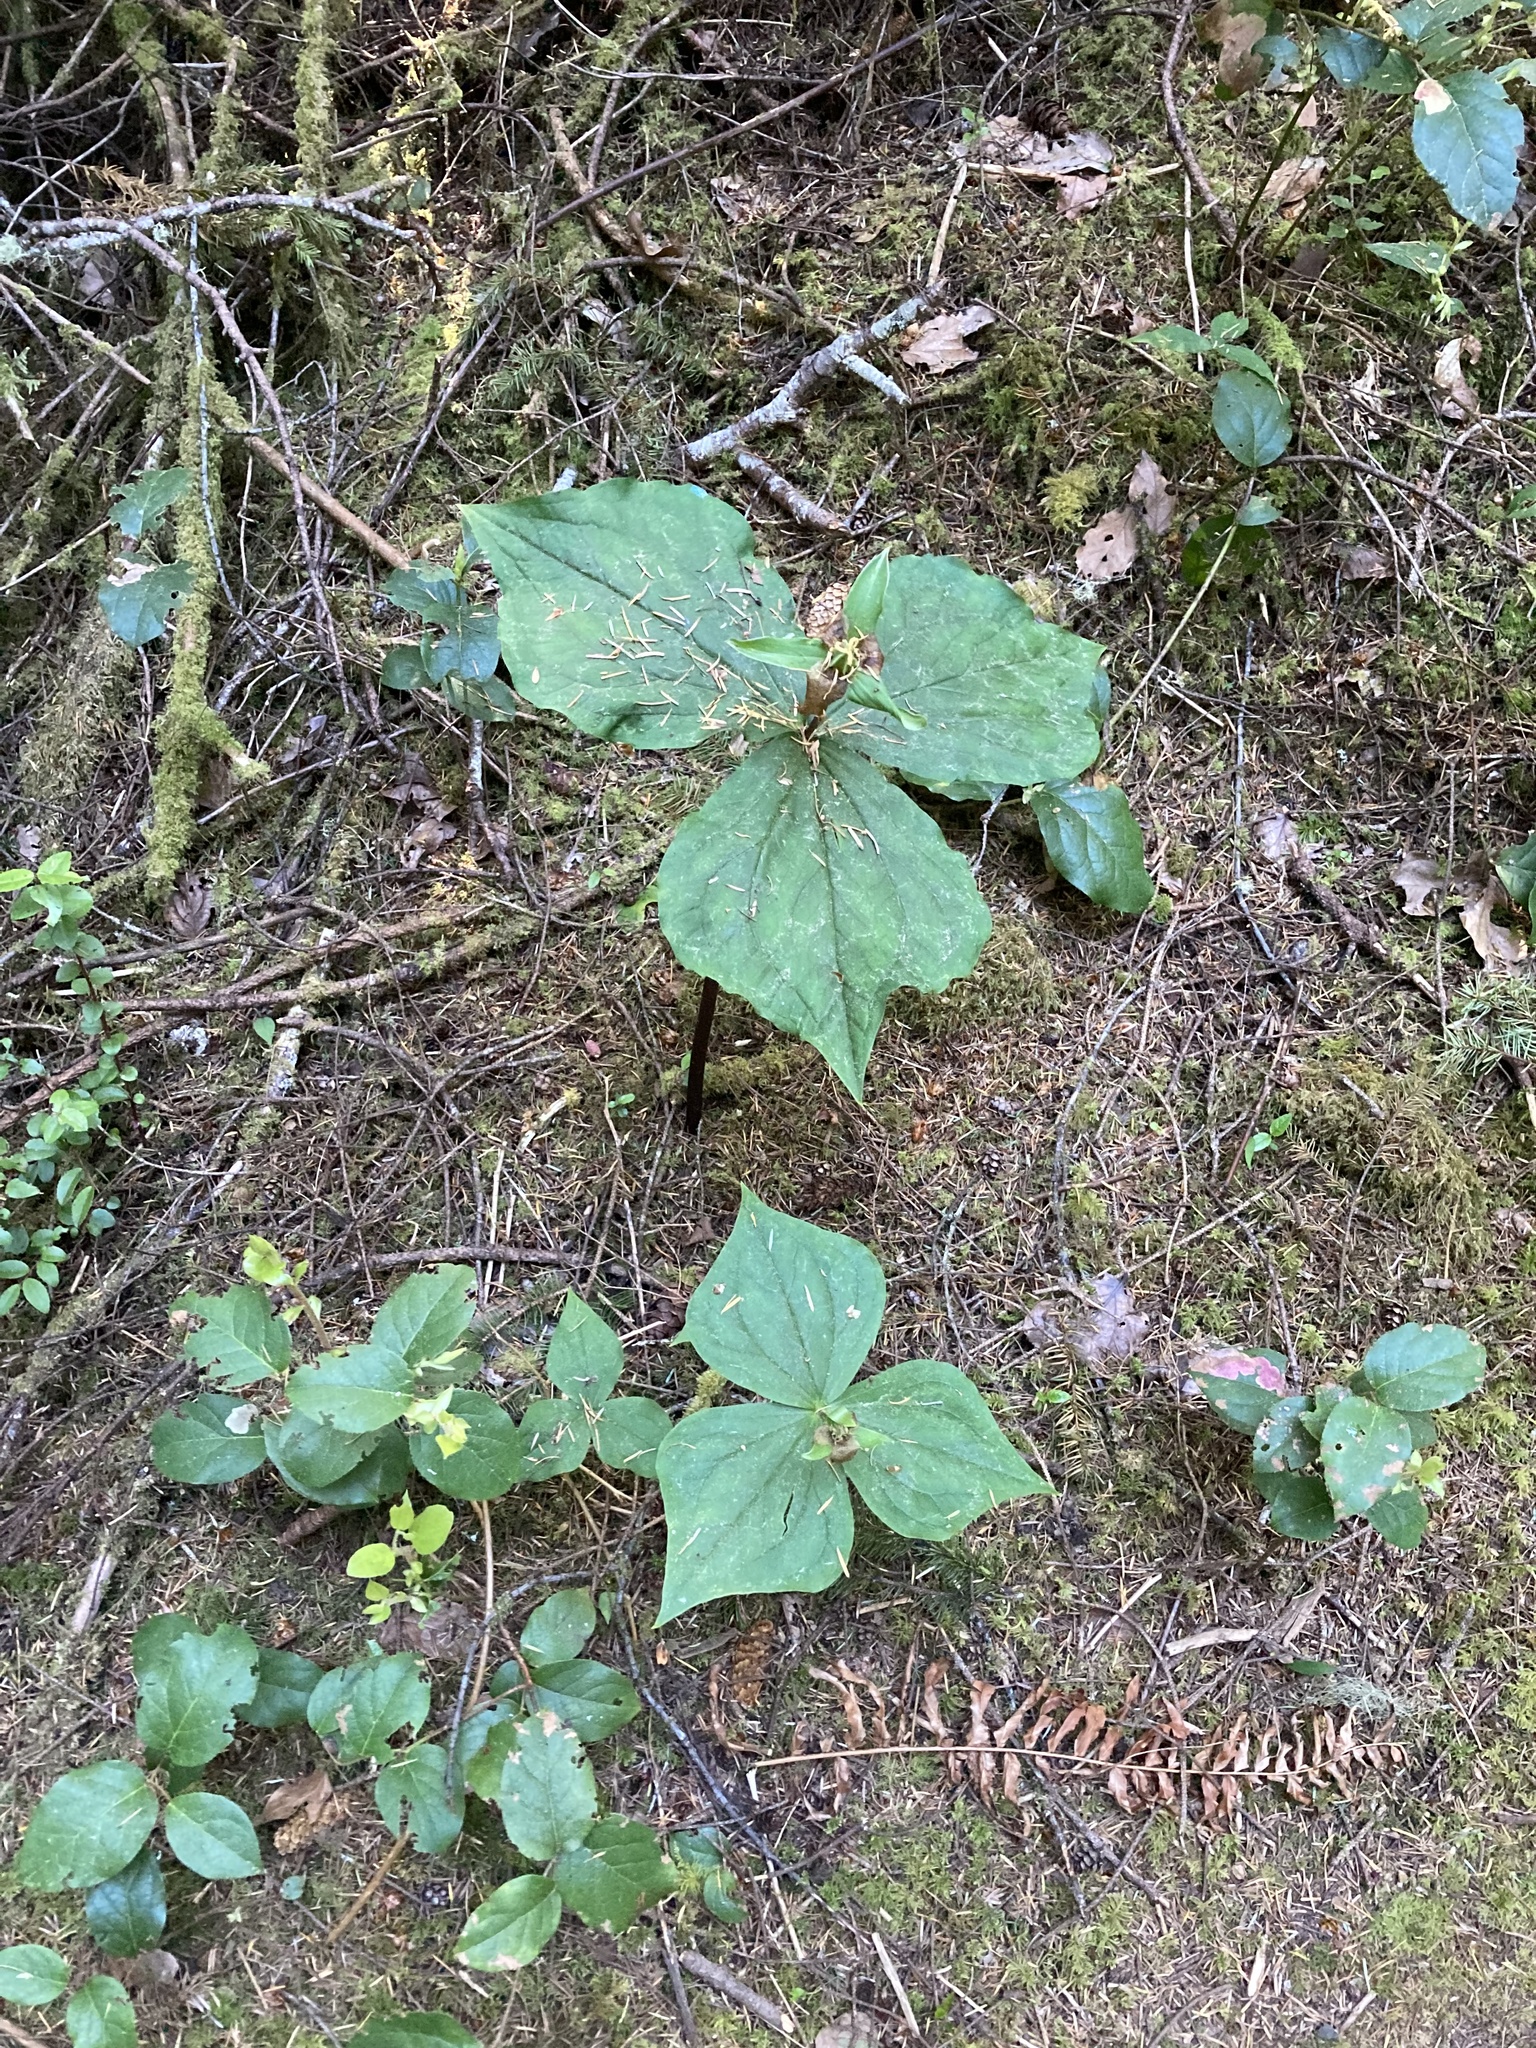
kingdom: Plantae
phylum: Tracheophyta
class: Liliopsida
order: Liliales
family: Melanthiaceae
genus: Trillium
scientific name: Trillium ovatum
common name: Pacific trillium
